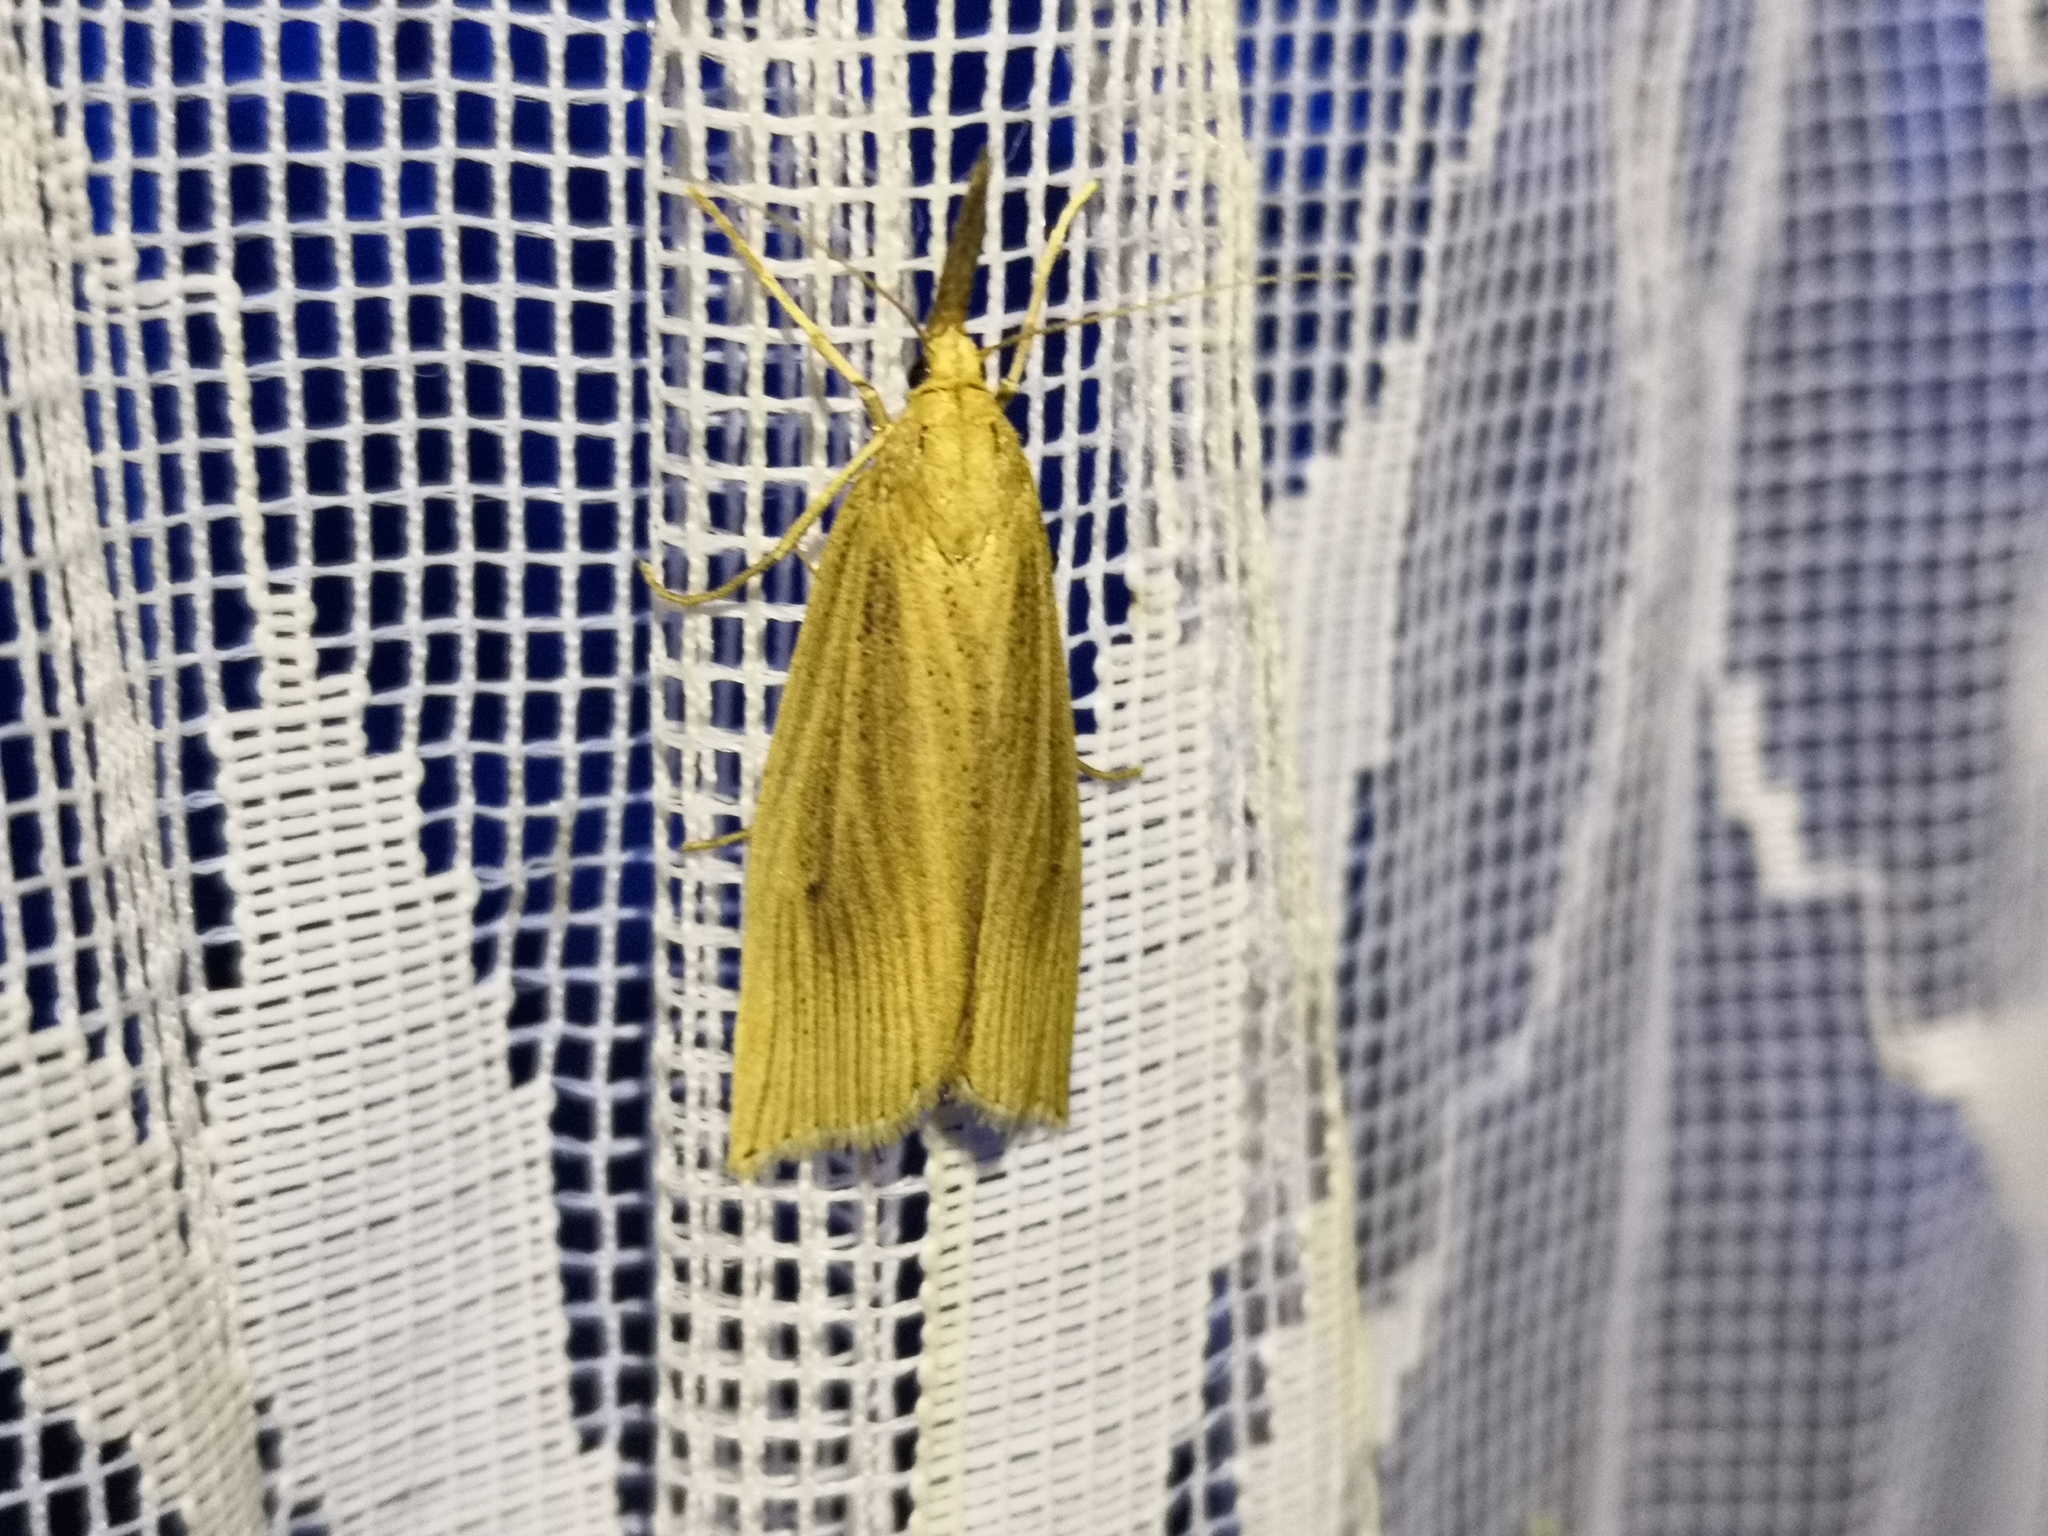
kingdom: Animalia
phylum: Arthropoda
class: Insecta
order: Lepidoptera
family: Crambidae
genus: Chilo
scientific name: Chilo phragmitella
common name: Reed veneer
